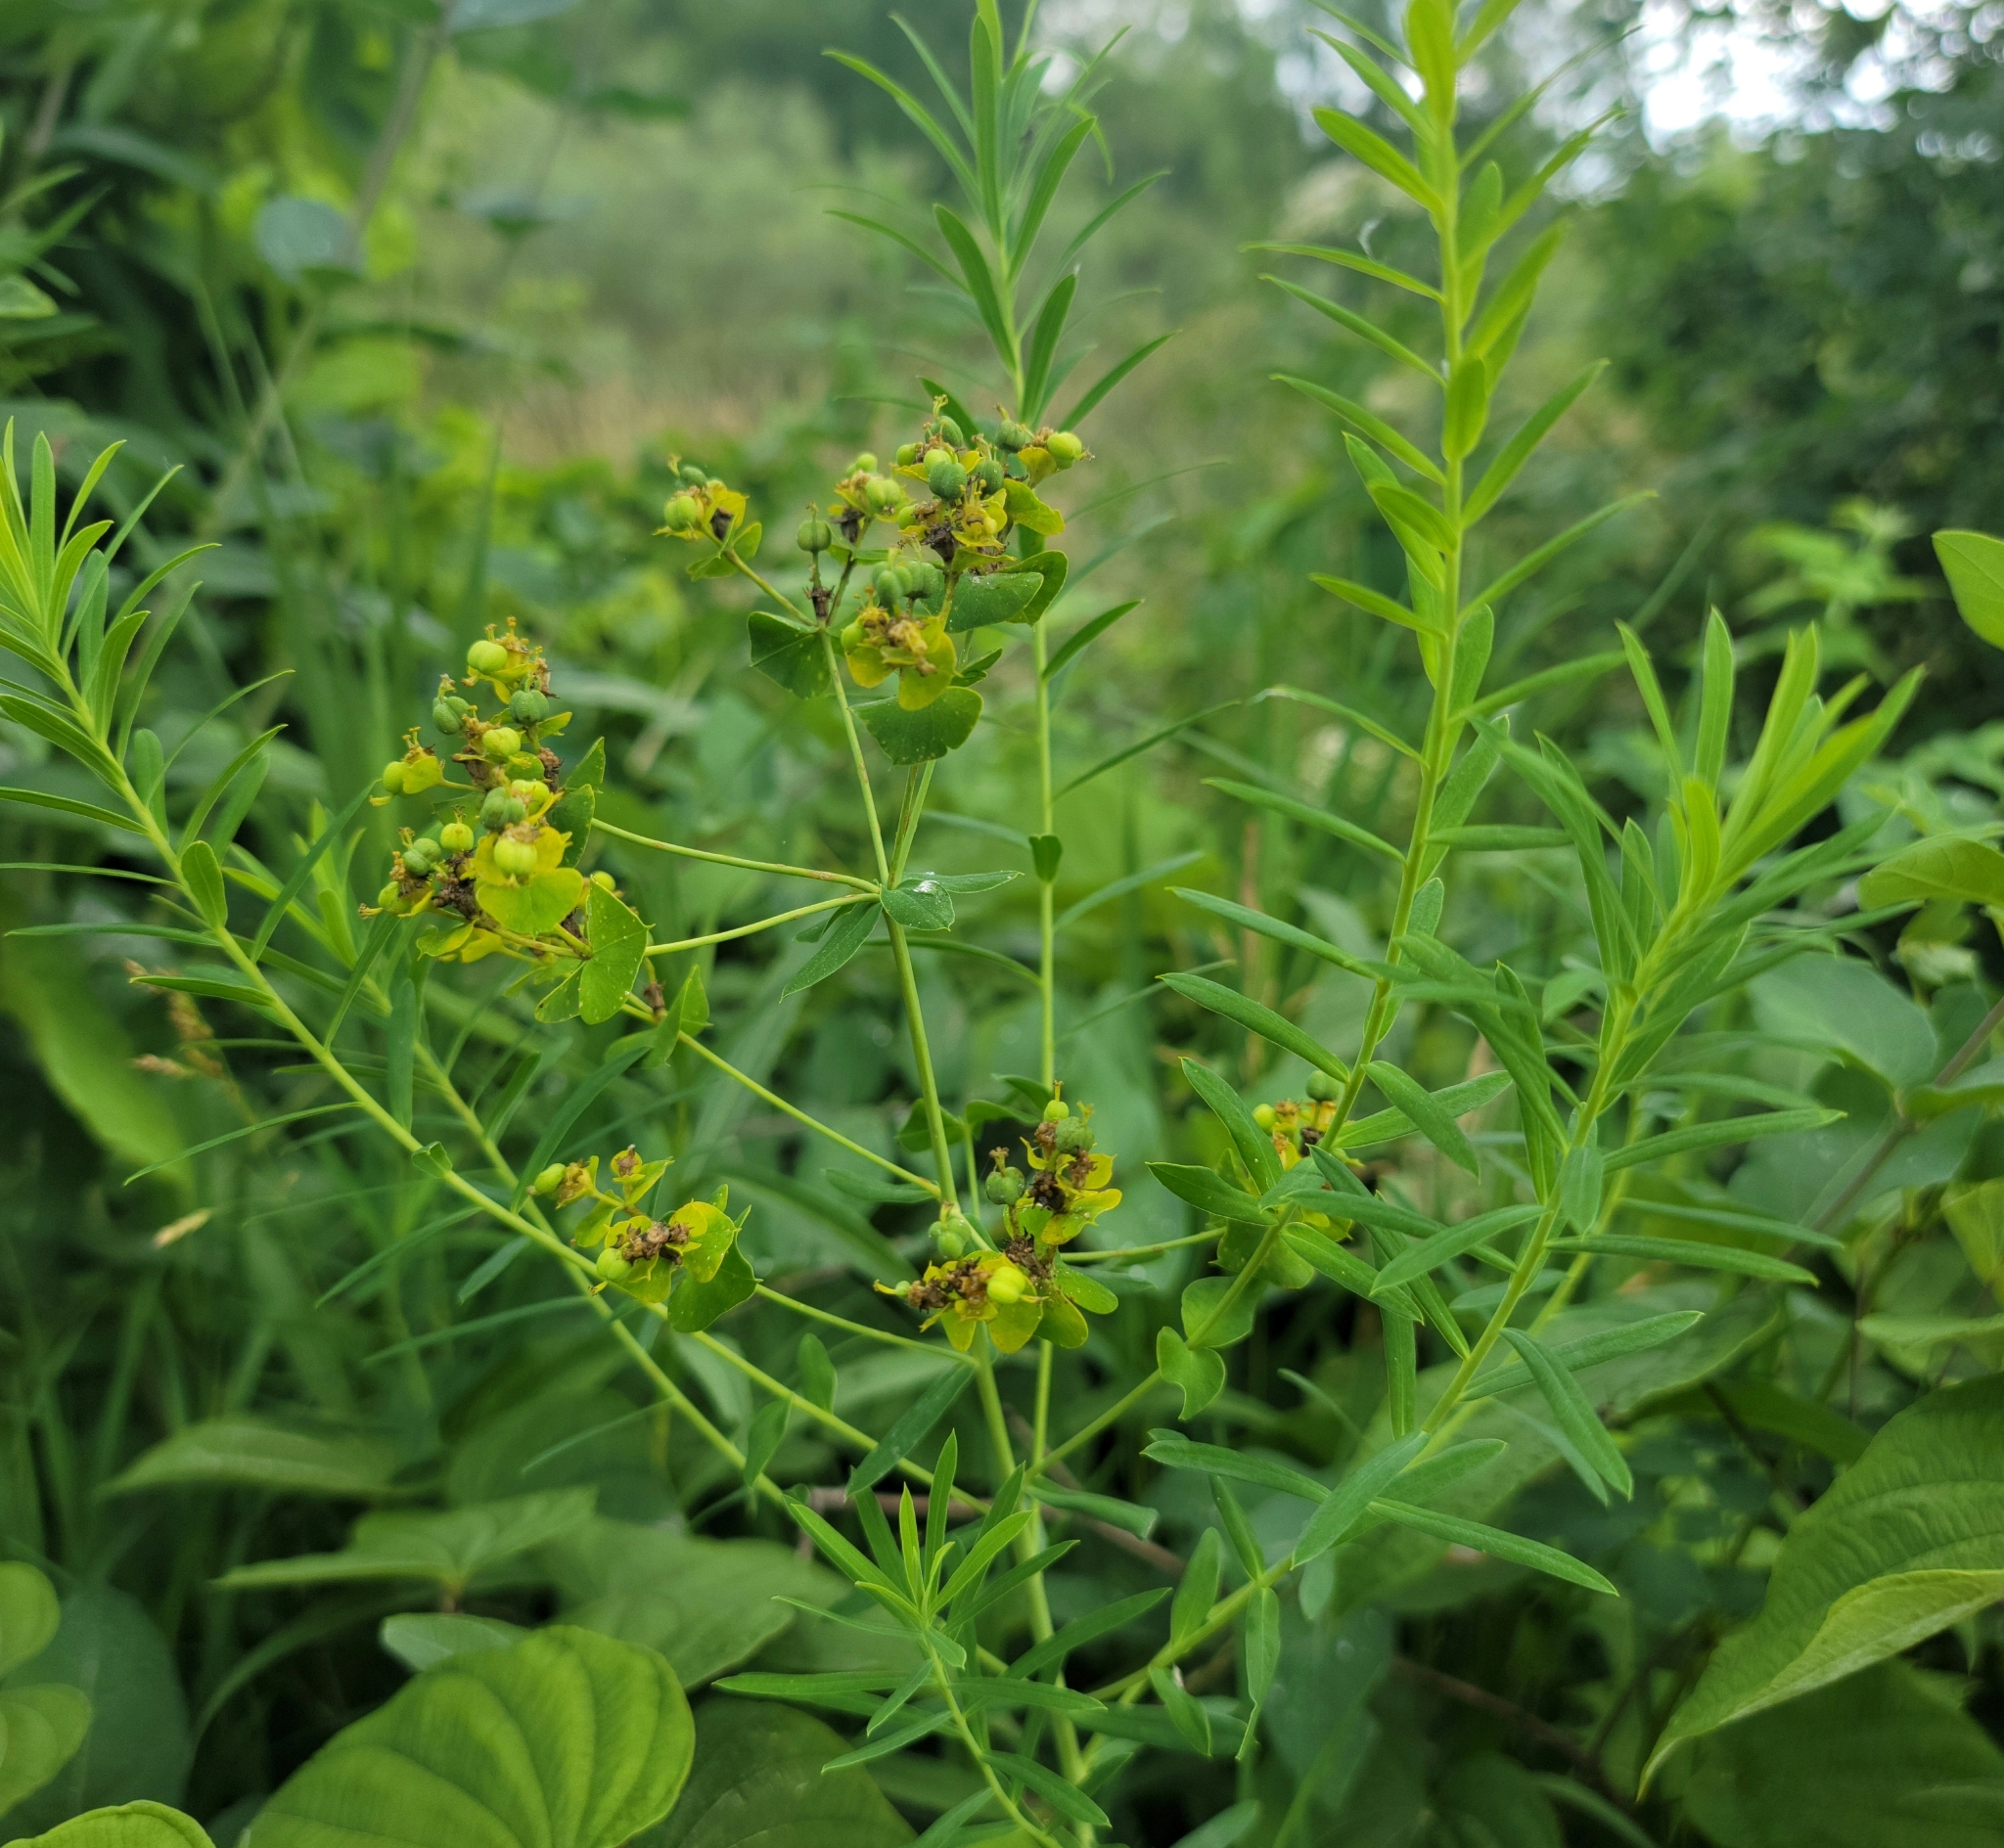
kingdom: Plantae
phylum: Tracheophyta
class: Magnoliopsida
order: Malpighiales
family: Euphorbiaceae
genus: Euphorbia
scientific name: Euphorbia virgata
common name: Leafy spurge
